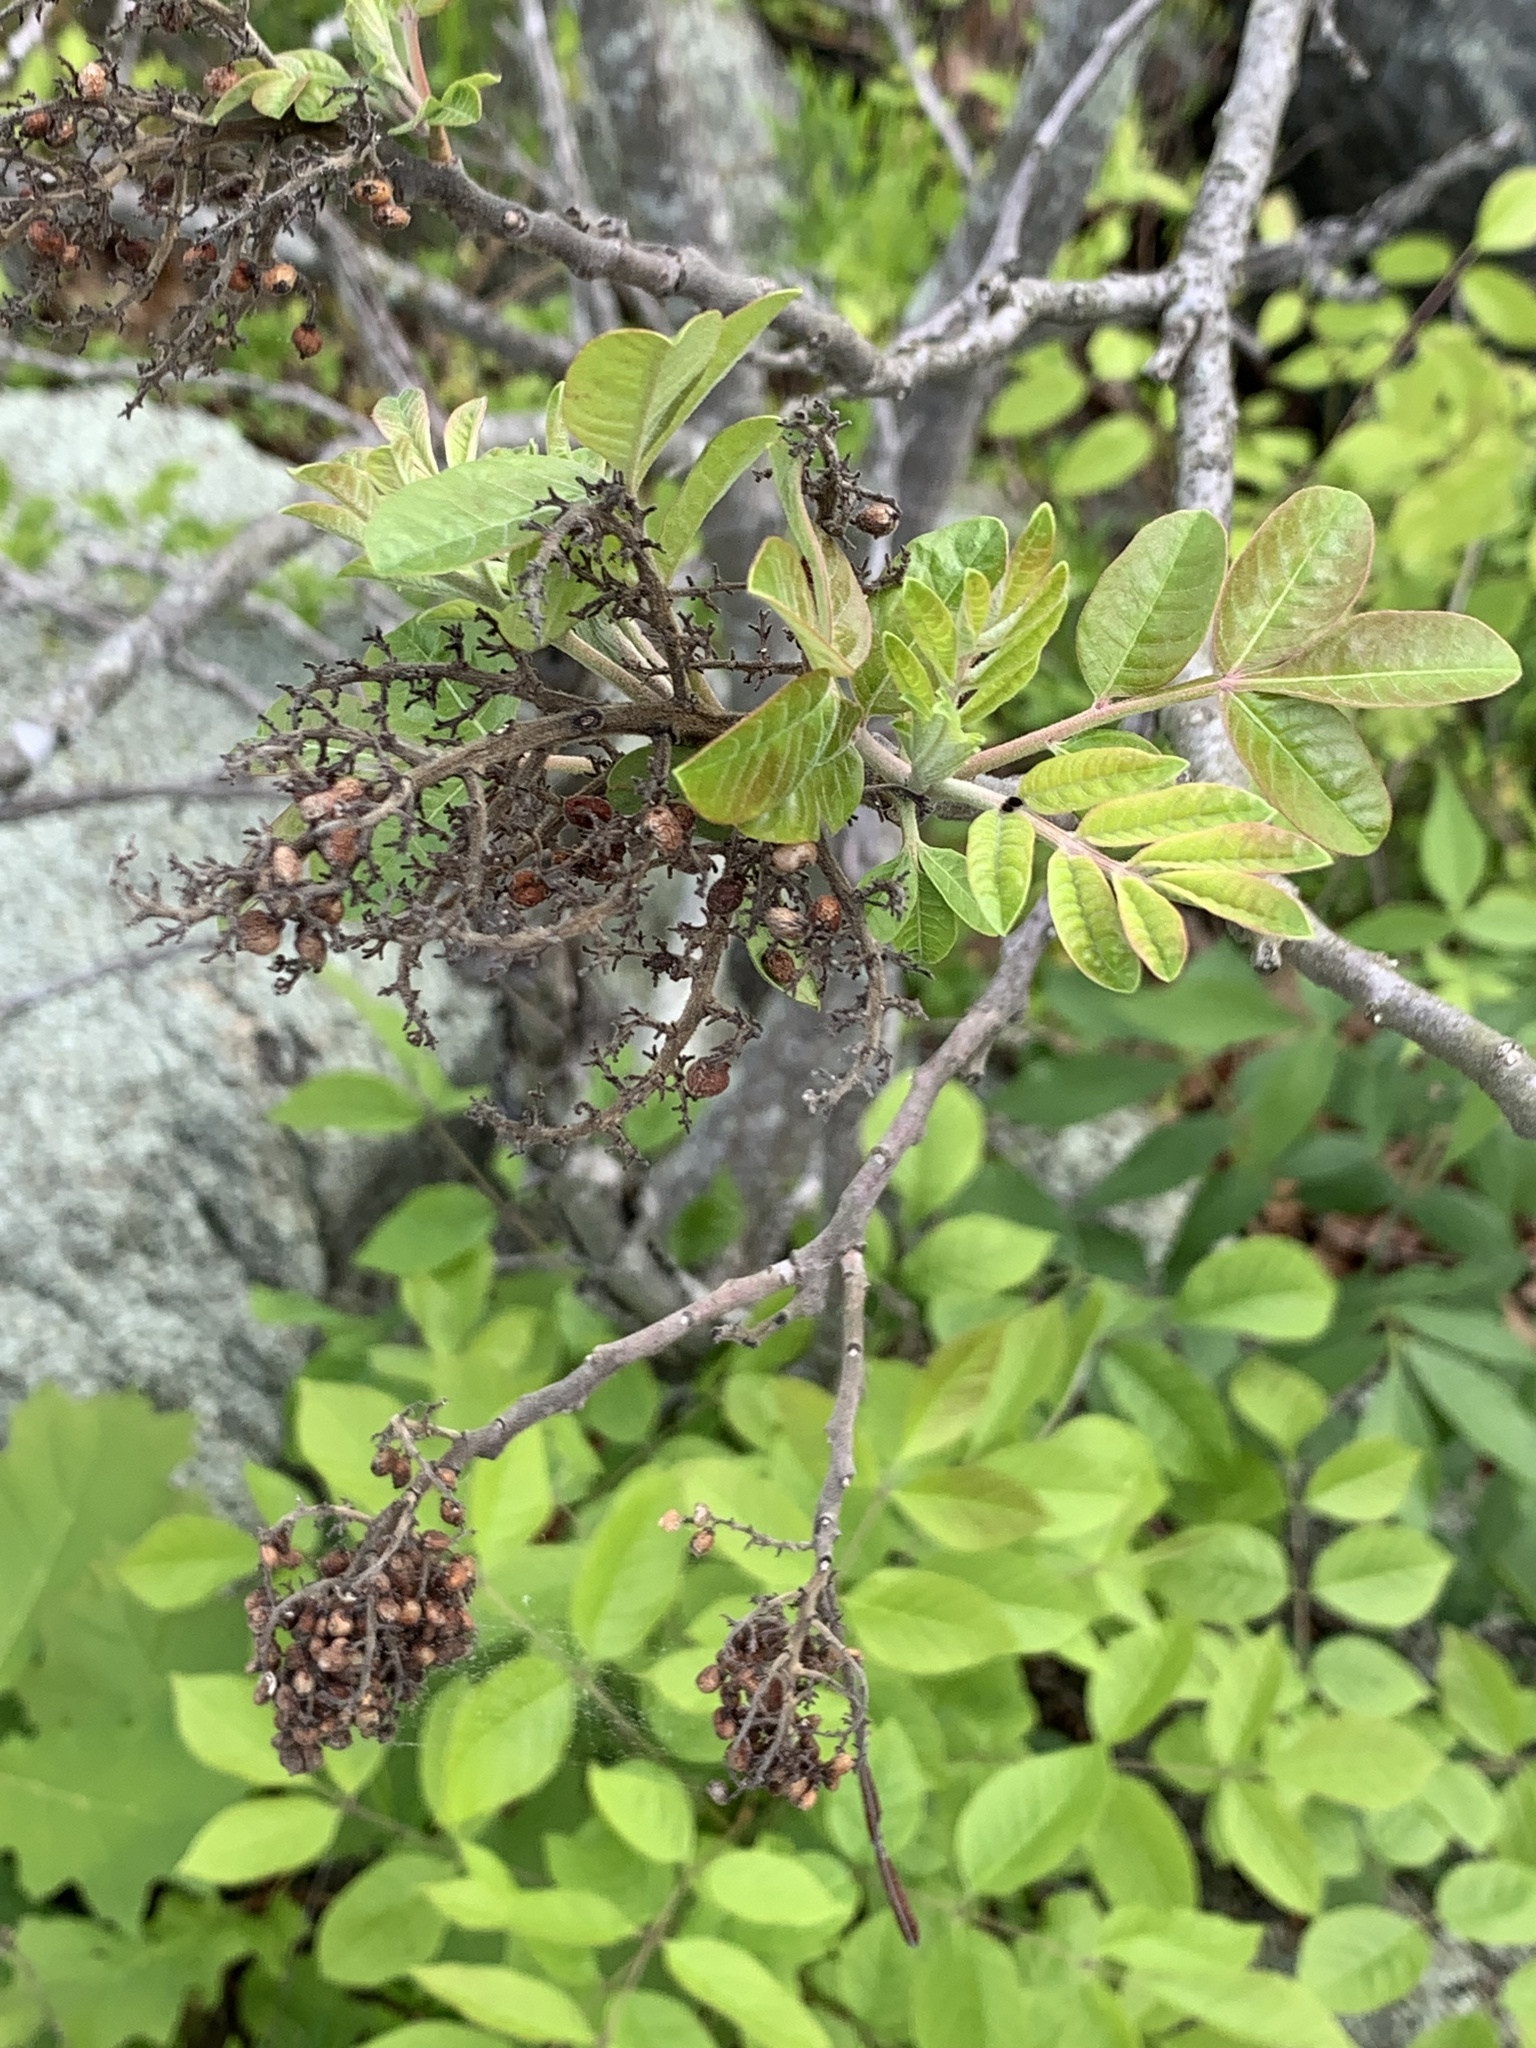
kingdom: Plantae
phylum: Tracheophyta
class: Magnoliopsida
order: Sapindales
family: Anacardiaceae
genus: Rhus
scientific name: Rhus copallina
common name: Shining sumac
